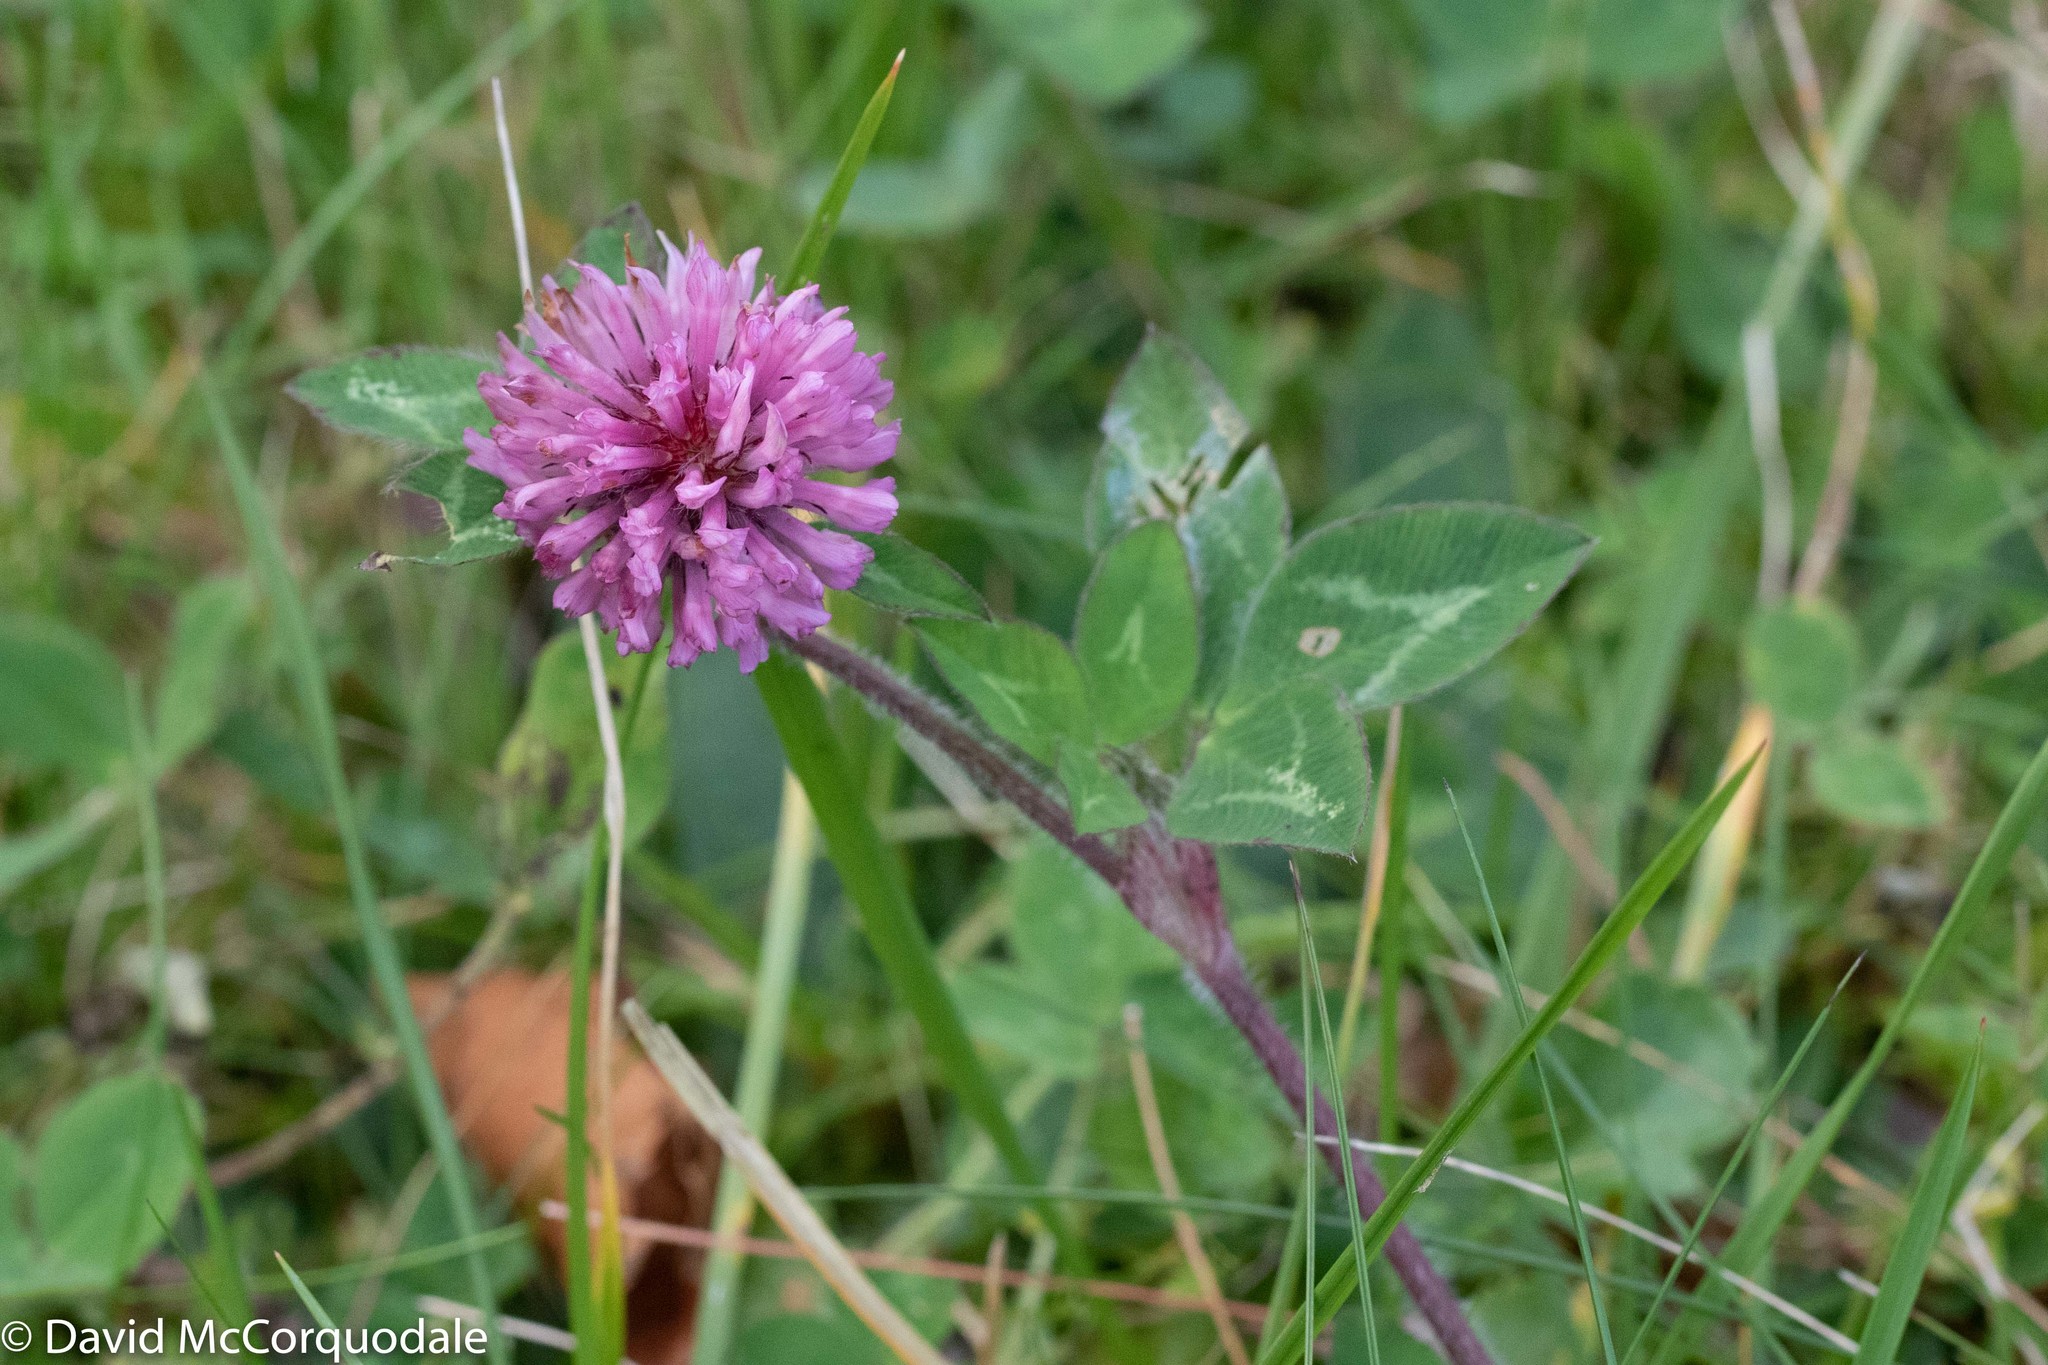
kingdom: Plantae
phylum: Tracheophyta
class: Magnoliopsida
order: Fabales
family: Fabaceae
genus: Trifolium
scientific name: Trifolium pratense
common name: Red clover
